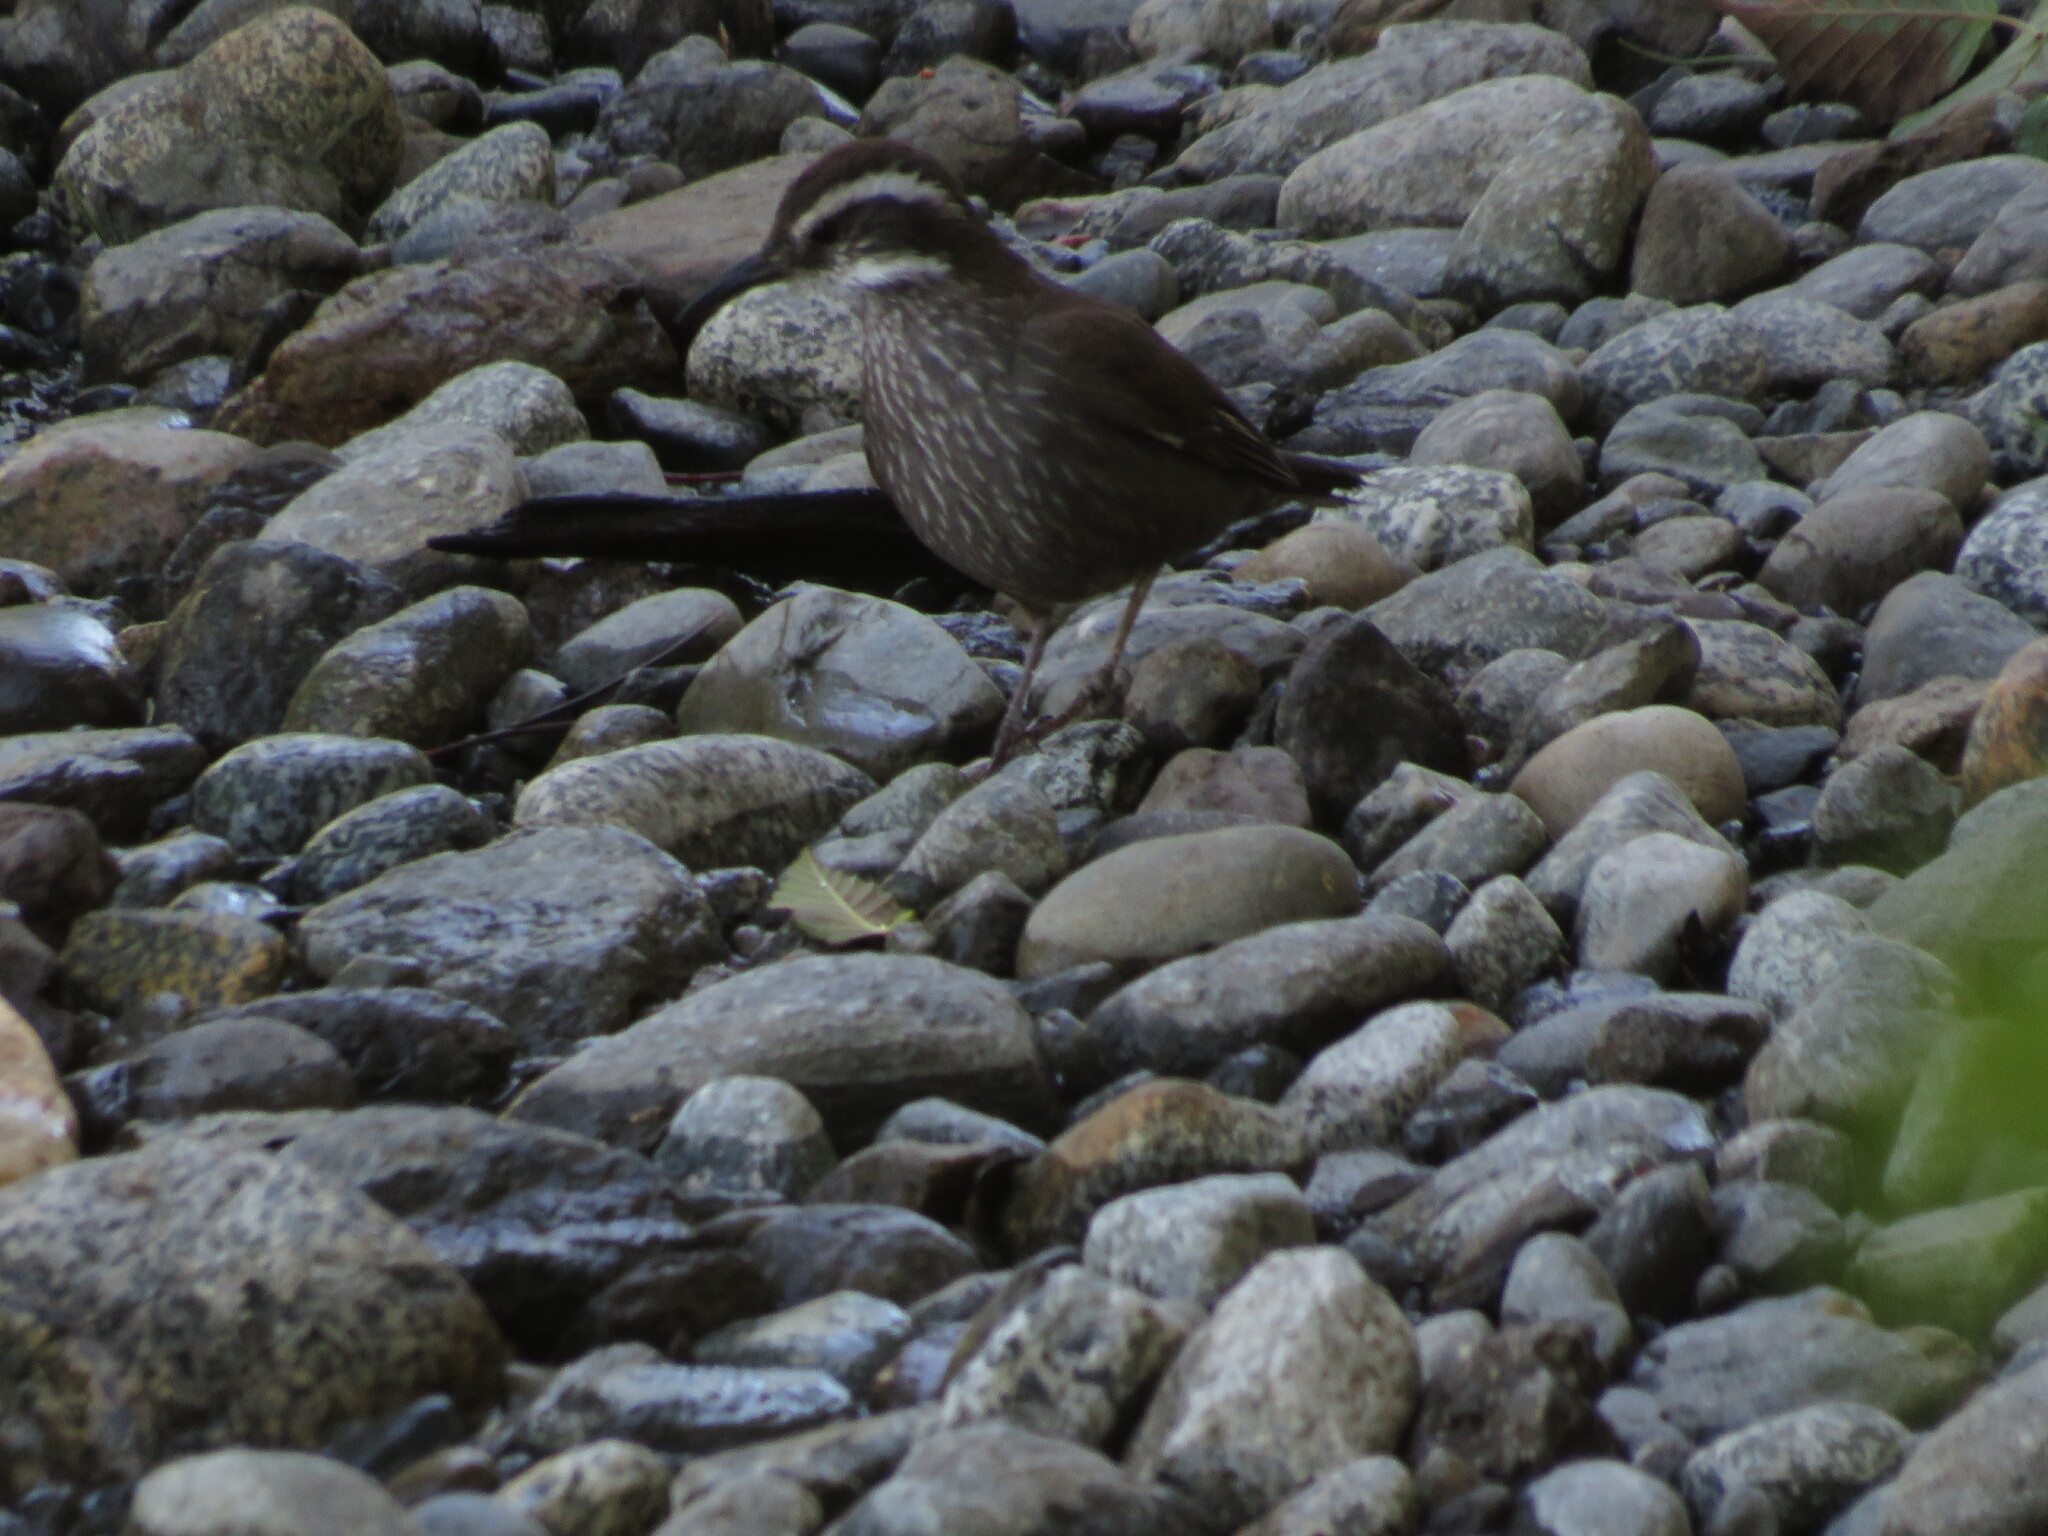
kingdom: Animalia
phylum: Chordata
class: Aves
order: Passeriformes
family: Furnariidae
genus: Cinclodes
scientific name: Cinclodes patagonicus
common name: Dark-bellied cinclodes
